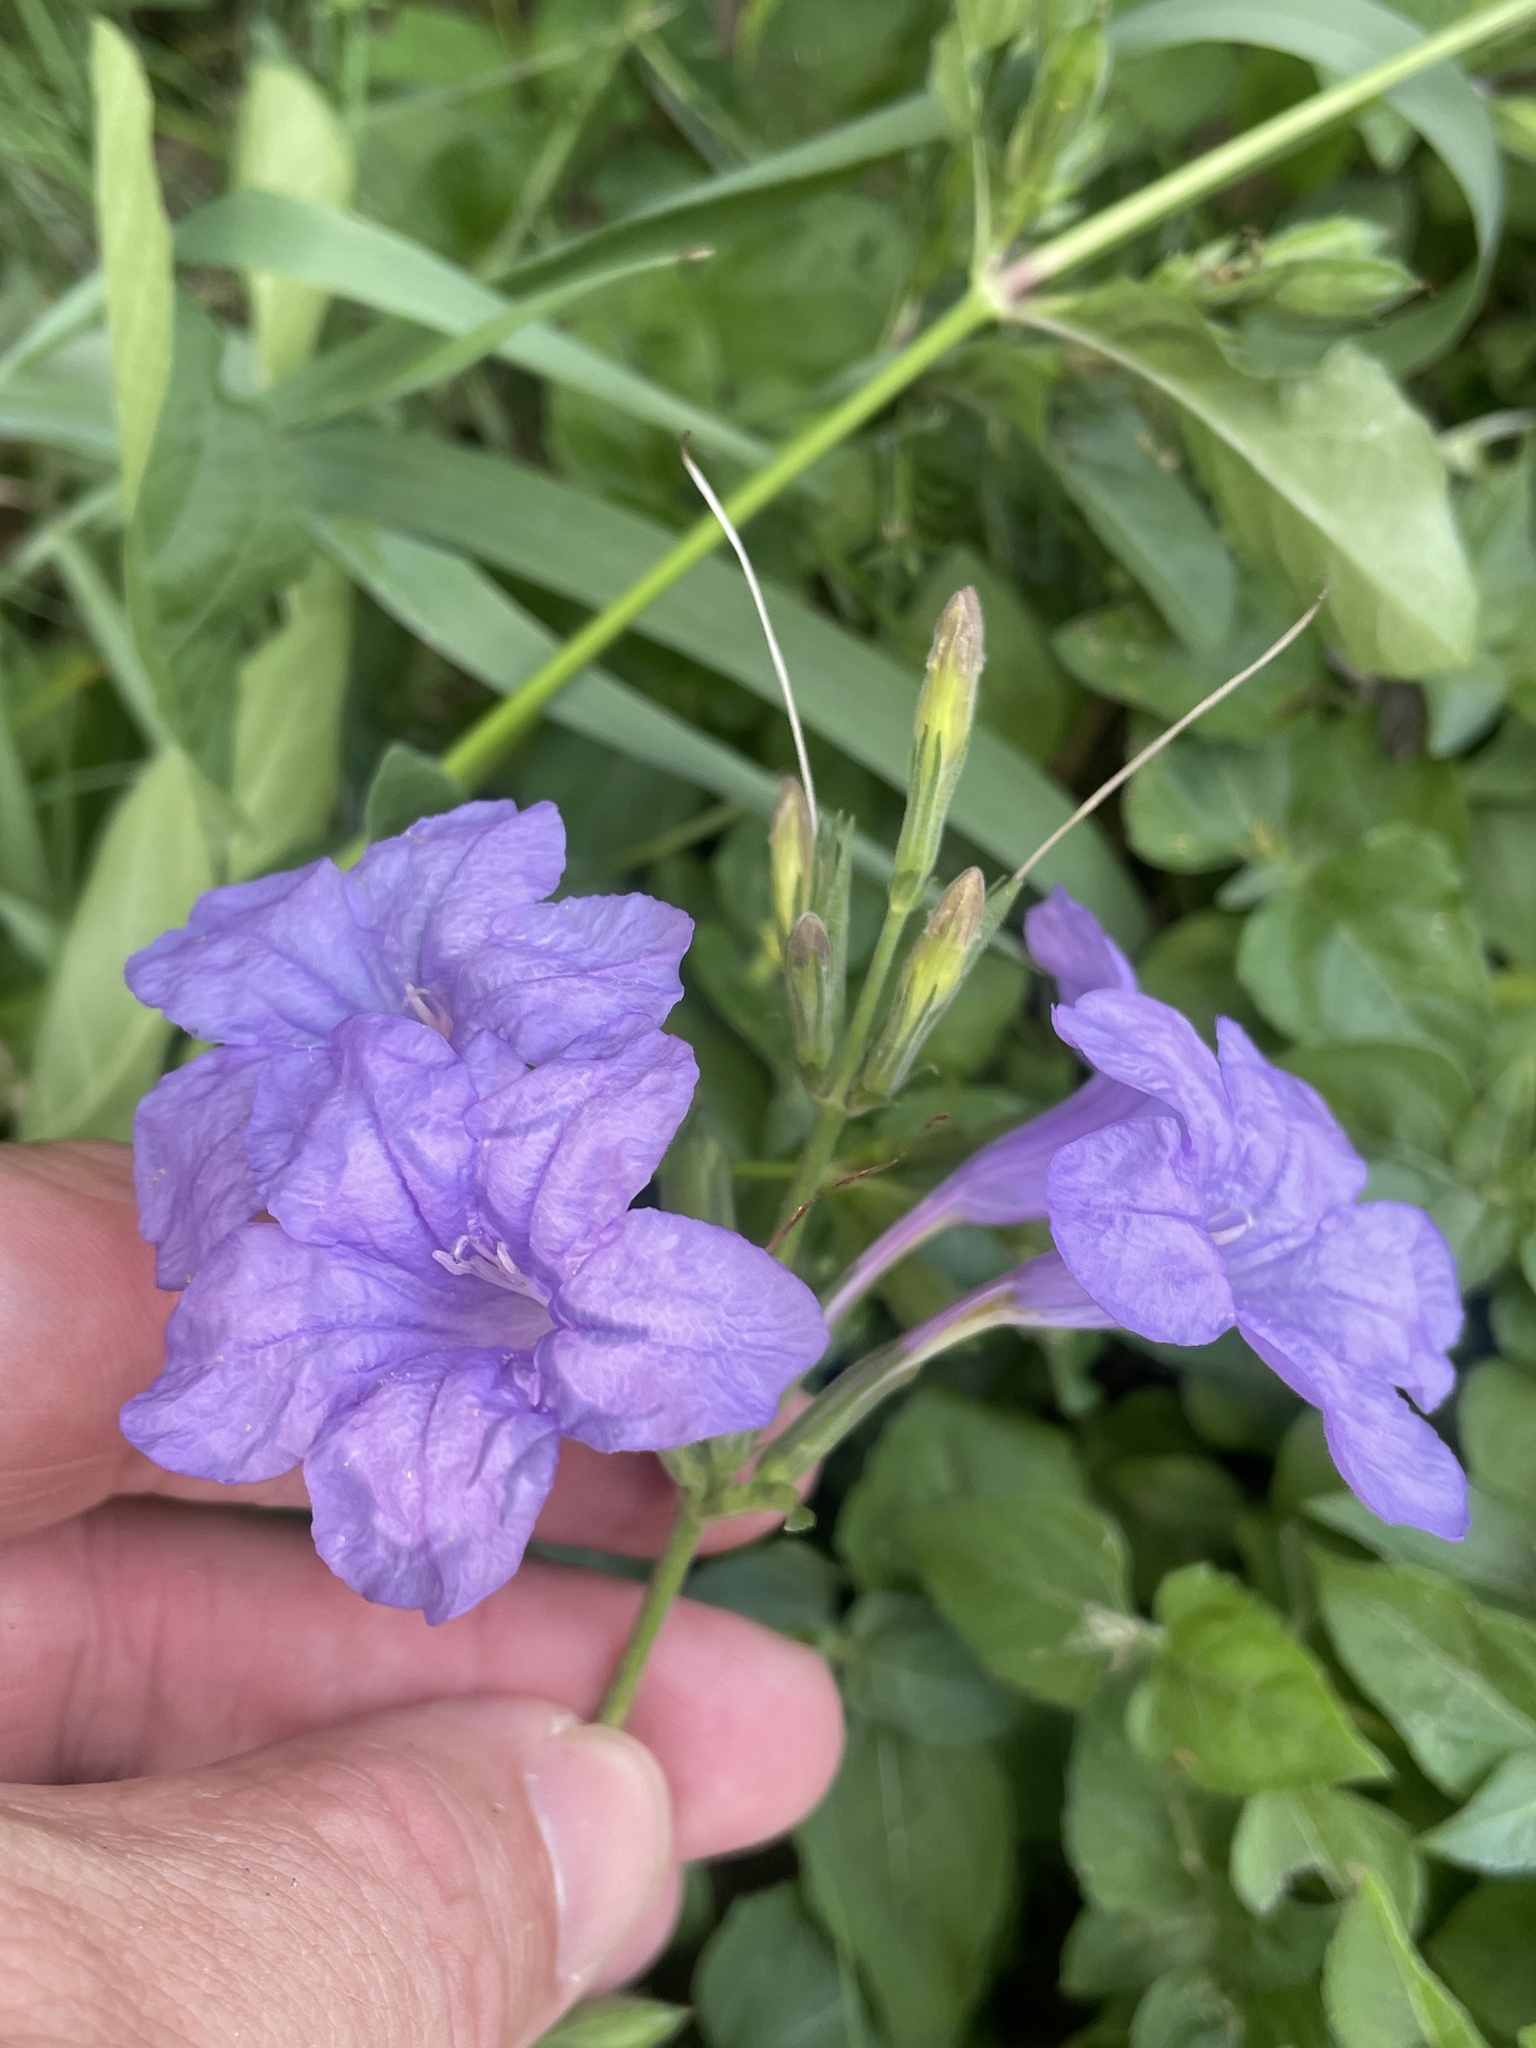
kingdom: Plantae
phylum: Tracheophyta
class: Magnoliopsida
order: Lamiales
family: Acanthaceae
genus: Ruellia
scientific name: Ruellia ciliatiflora
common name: Hairyflower wild petunia
